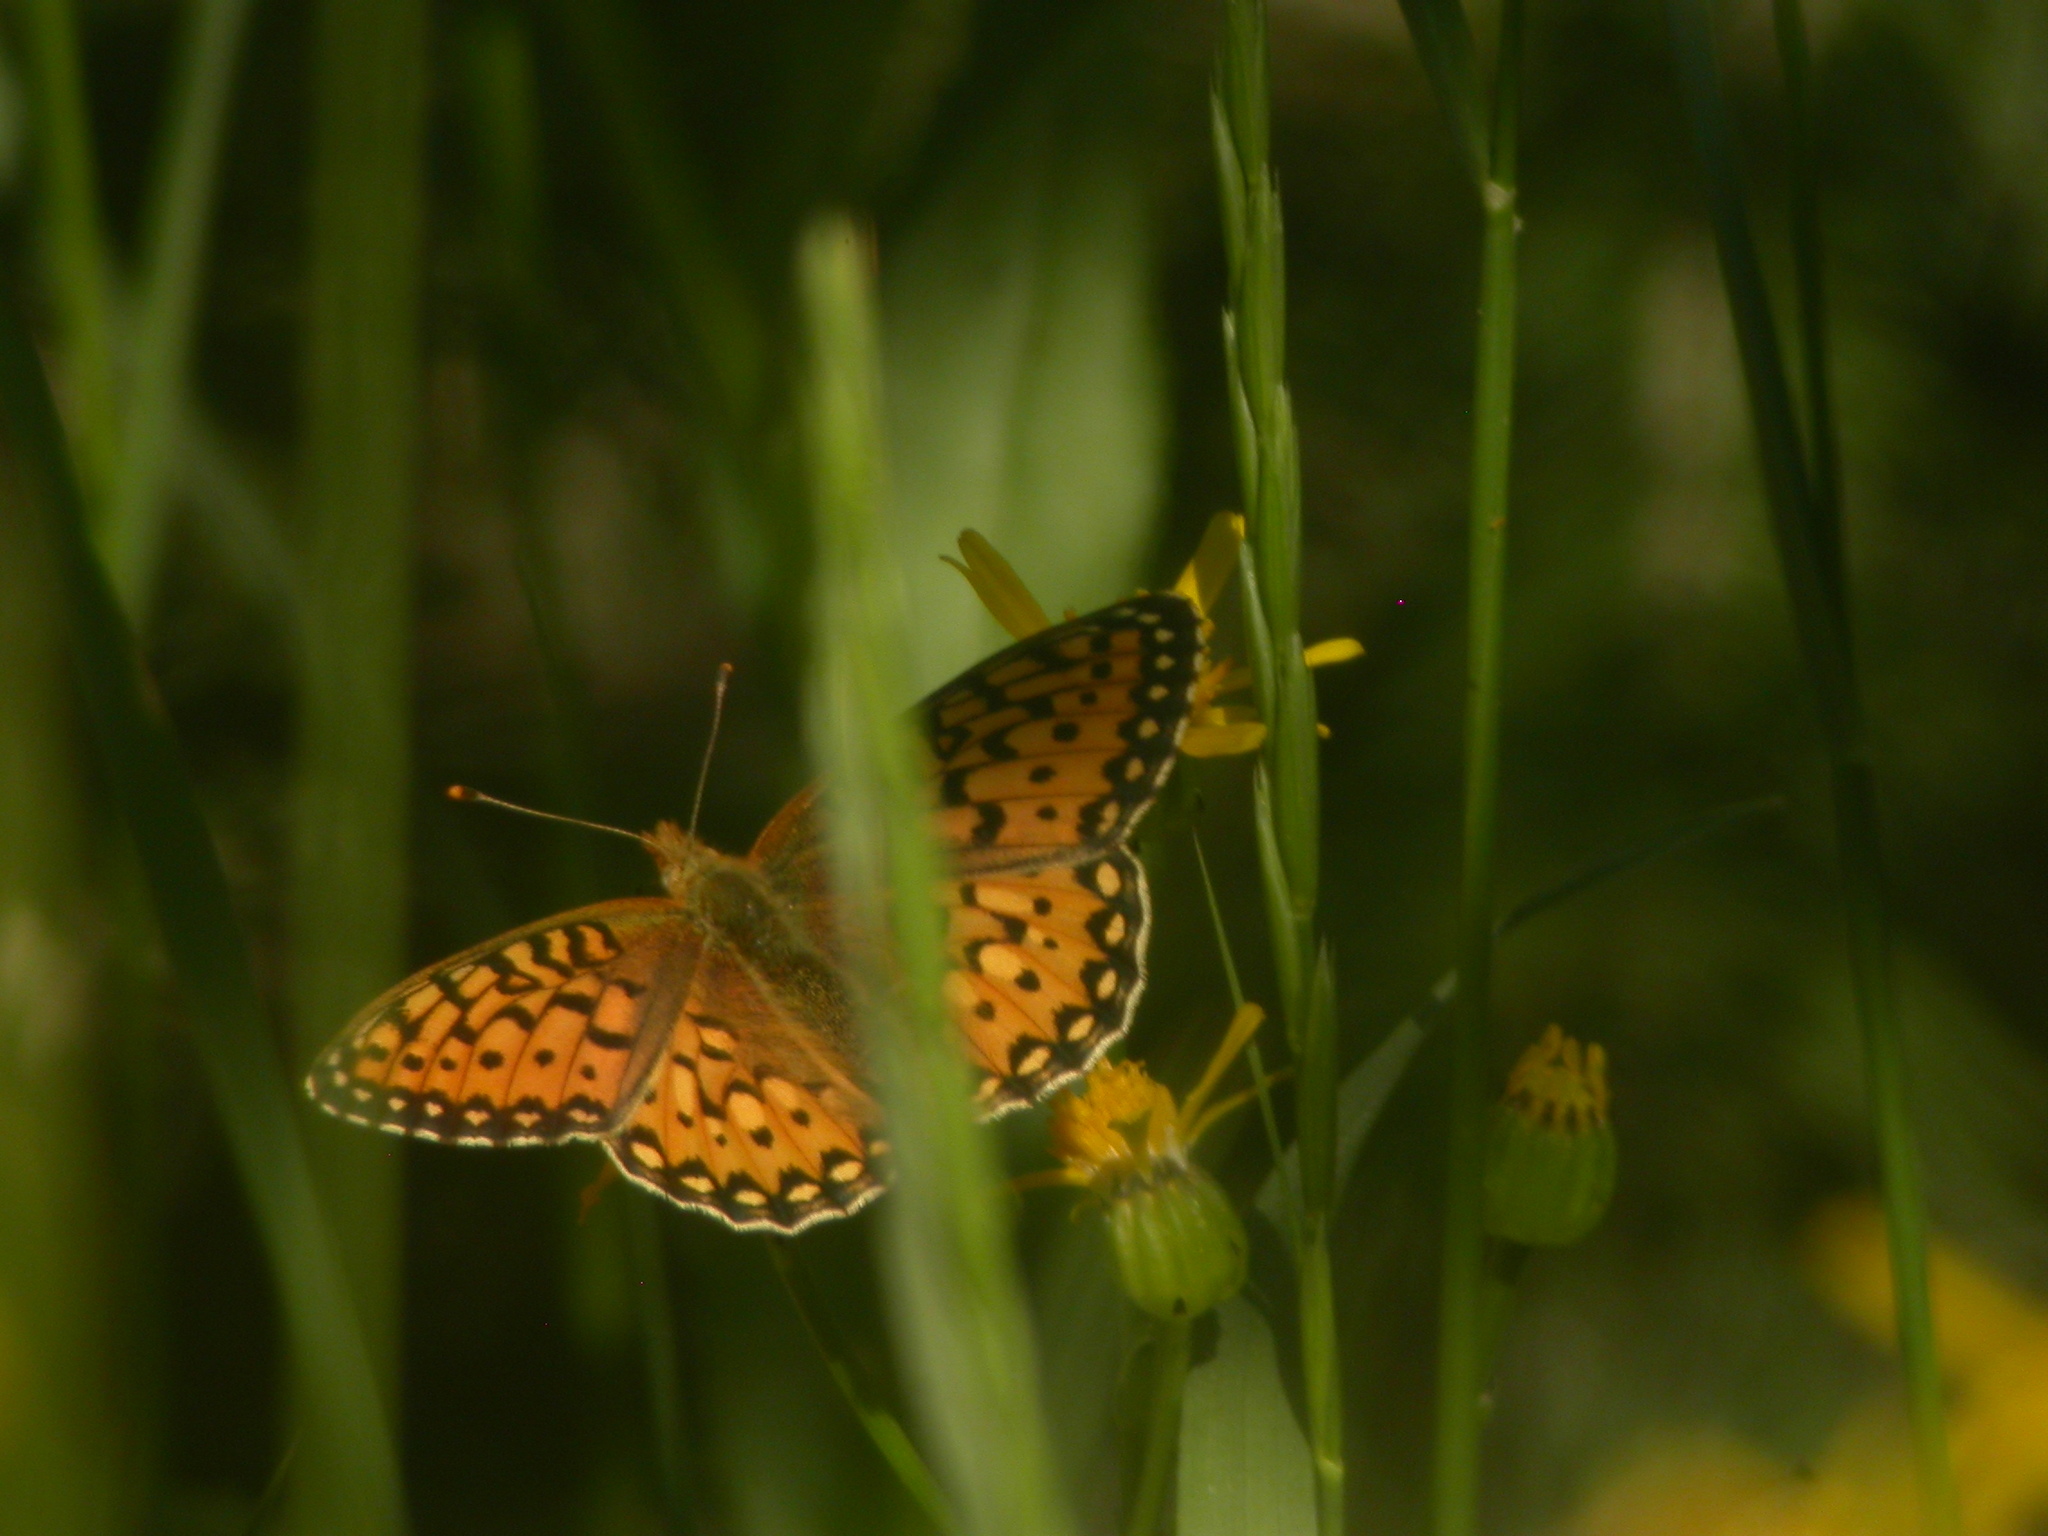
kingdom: Animalia
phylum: Arthropoda
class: Insecta
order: Lepidoptera
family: Nymphalidae
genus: Speyeria
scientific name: Speyeria mormonia
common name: Mormon fritillary
